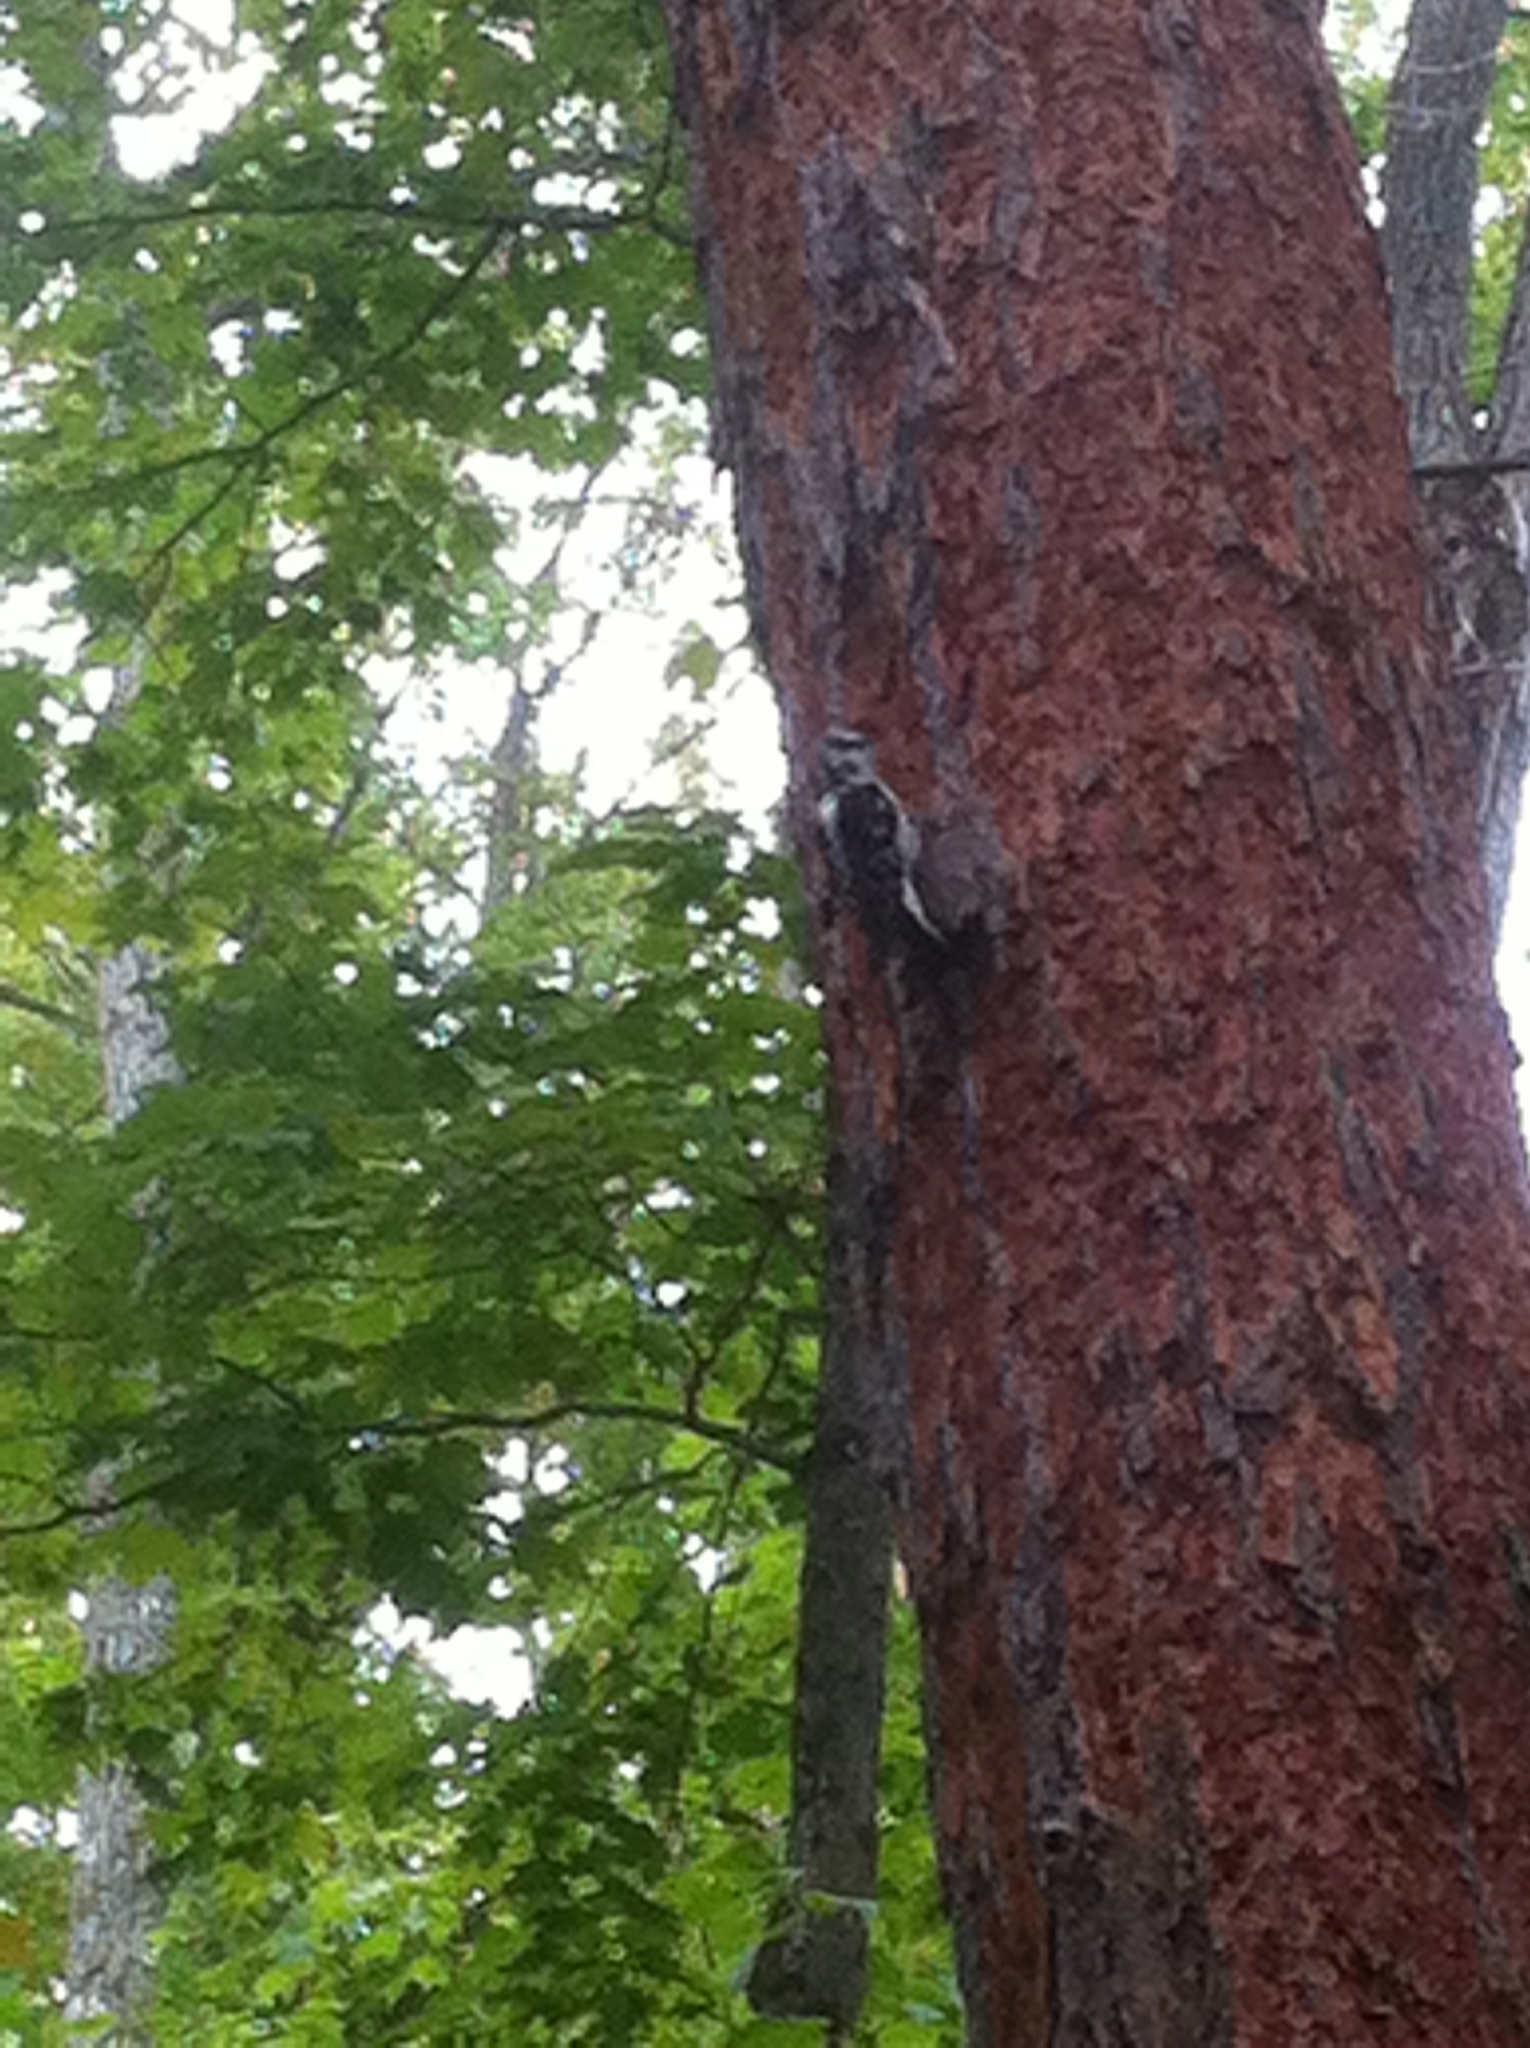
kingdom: Animalia
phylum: Chordata
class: Aves
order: Piciformes
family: Picidae
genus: Leuconotopicus
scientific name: Leuconotopicus villosus
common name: Hairy woodpecker
